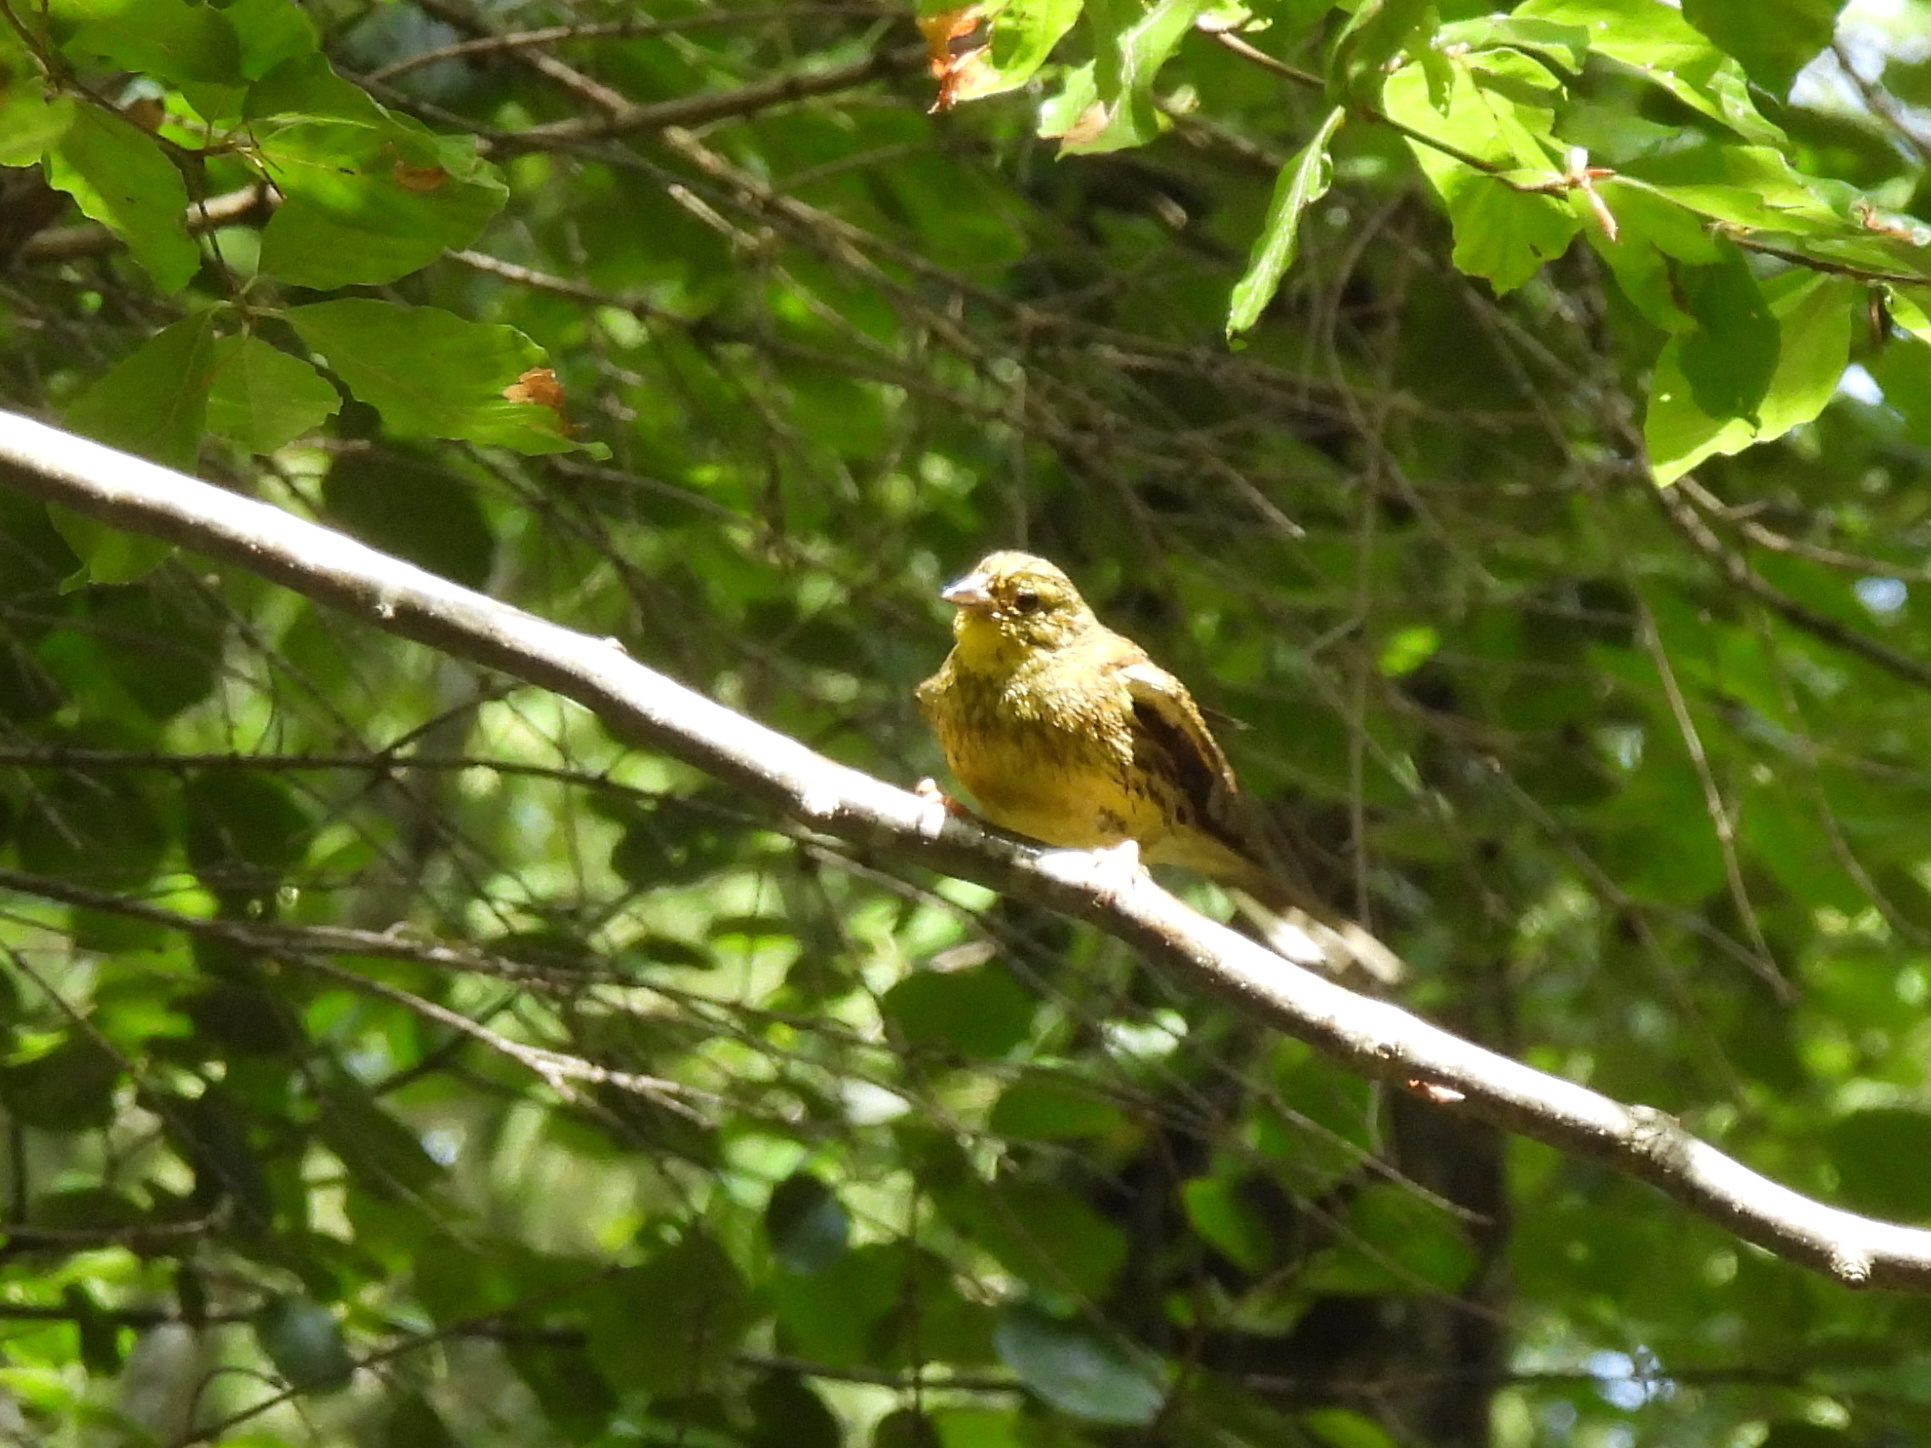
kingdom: Animalia
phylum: Chordata
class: Aves
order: Passeriformes
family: Emberizidae
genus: Emberiza
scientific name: Emberiza citrinella
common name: Yellowhammer
